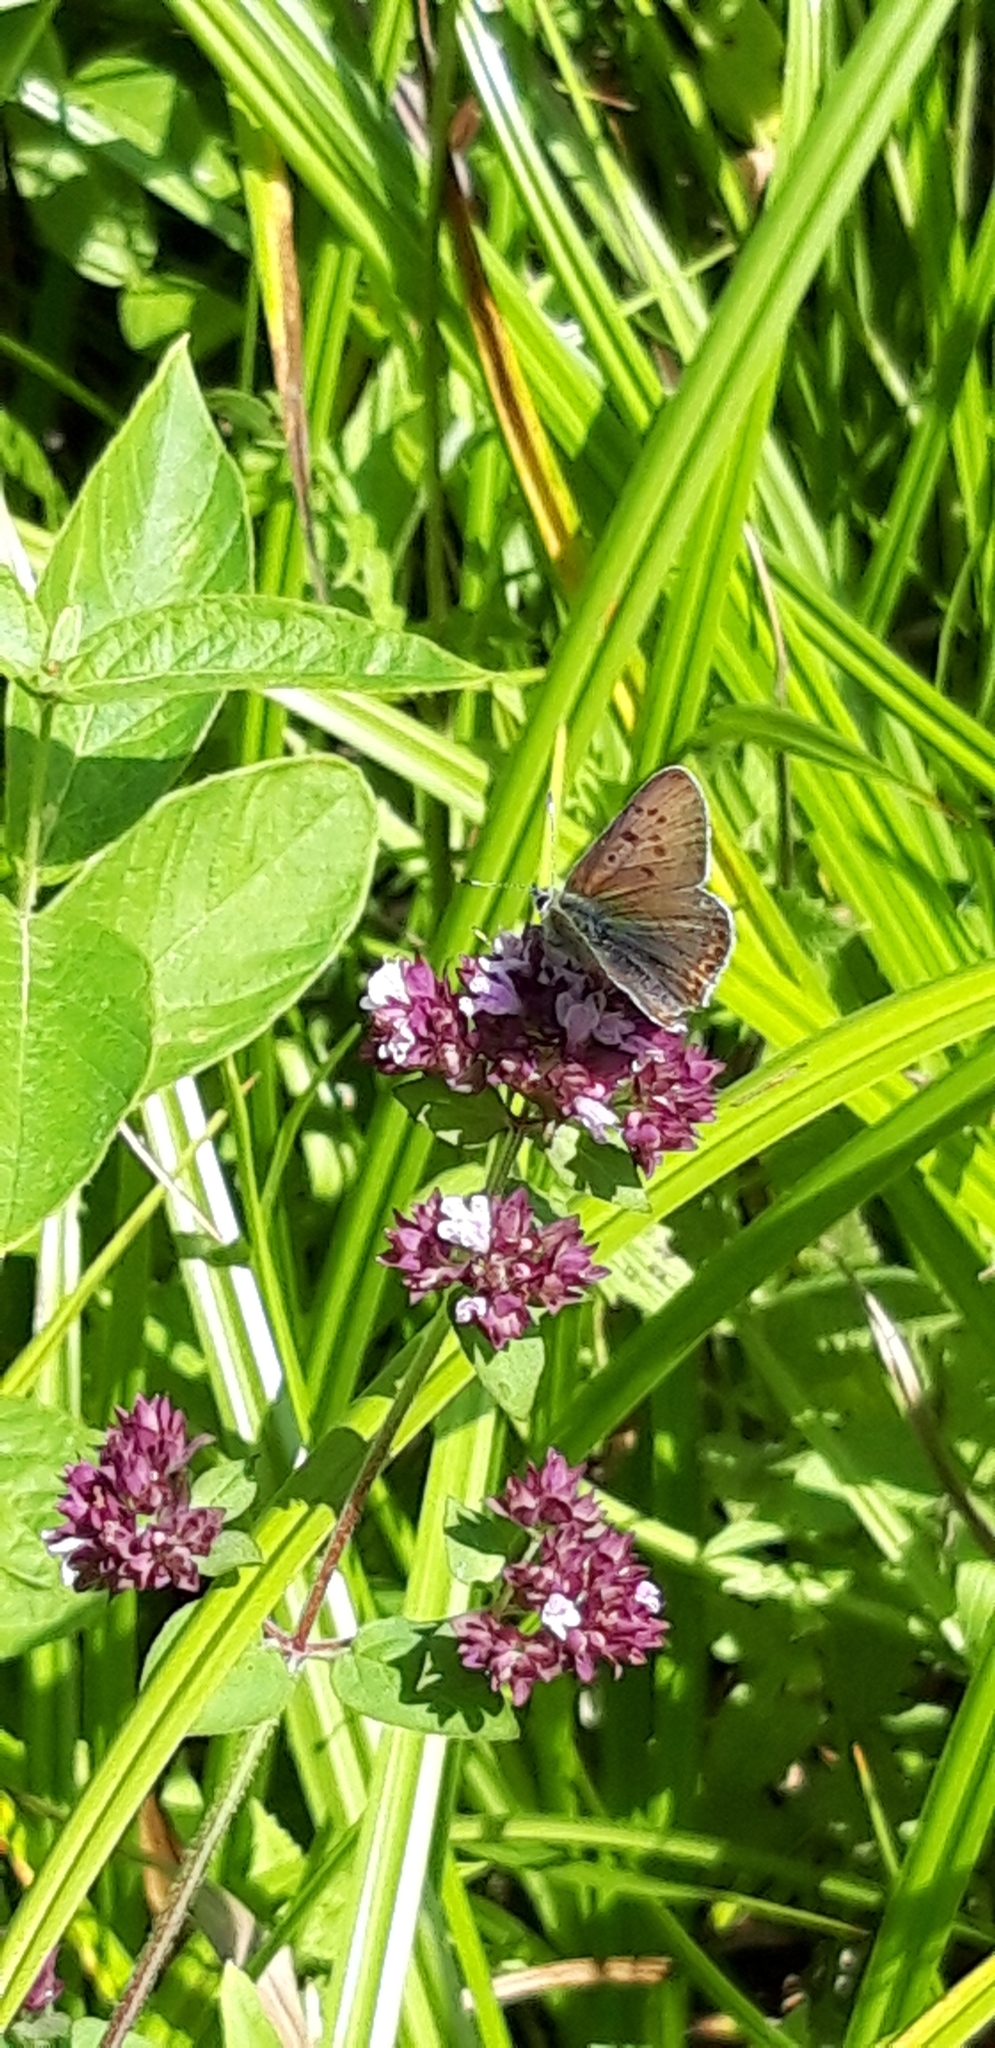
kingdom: Animalia
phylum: Arthropoda
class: Insecta
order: Lepidoptera
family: Lycaenidae
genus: Loweia
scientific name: Loweia tityrus
